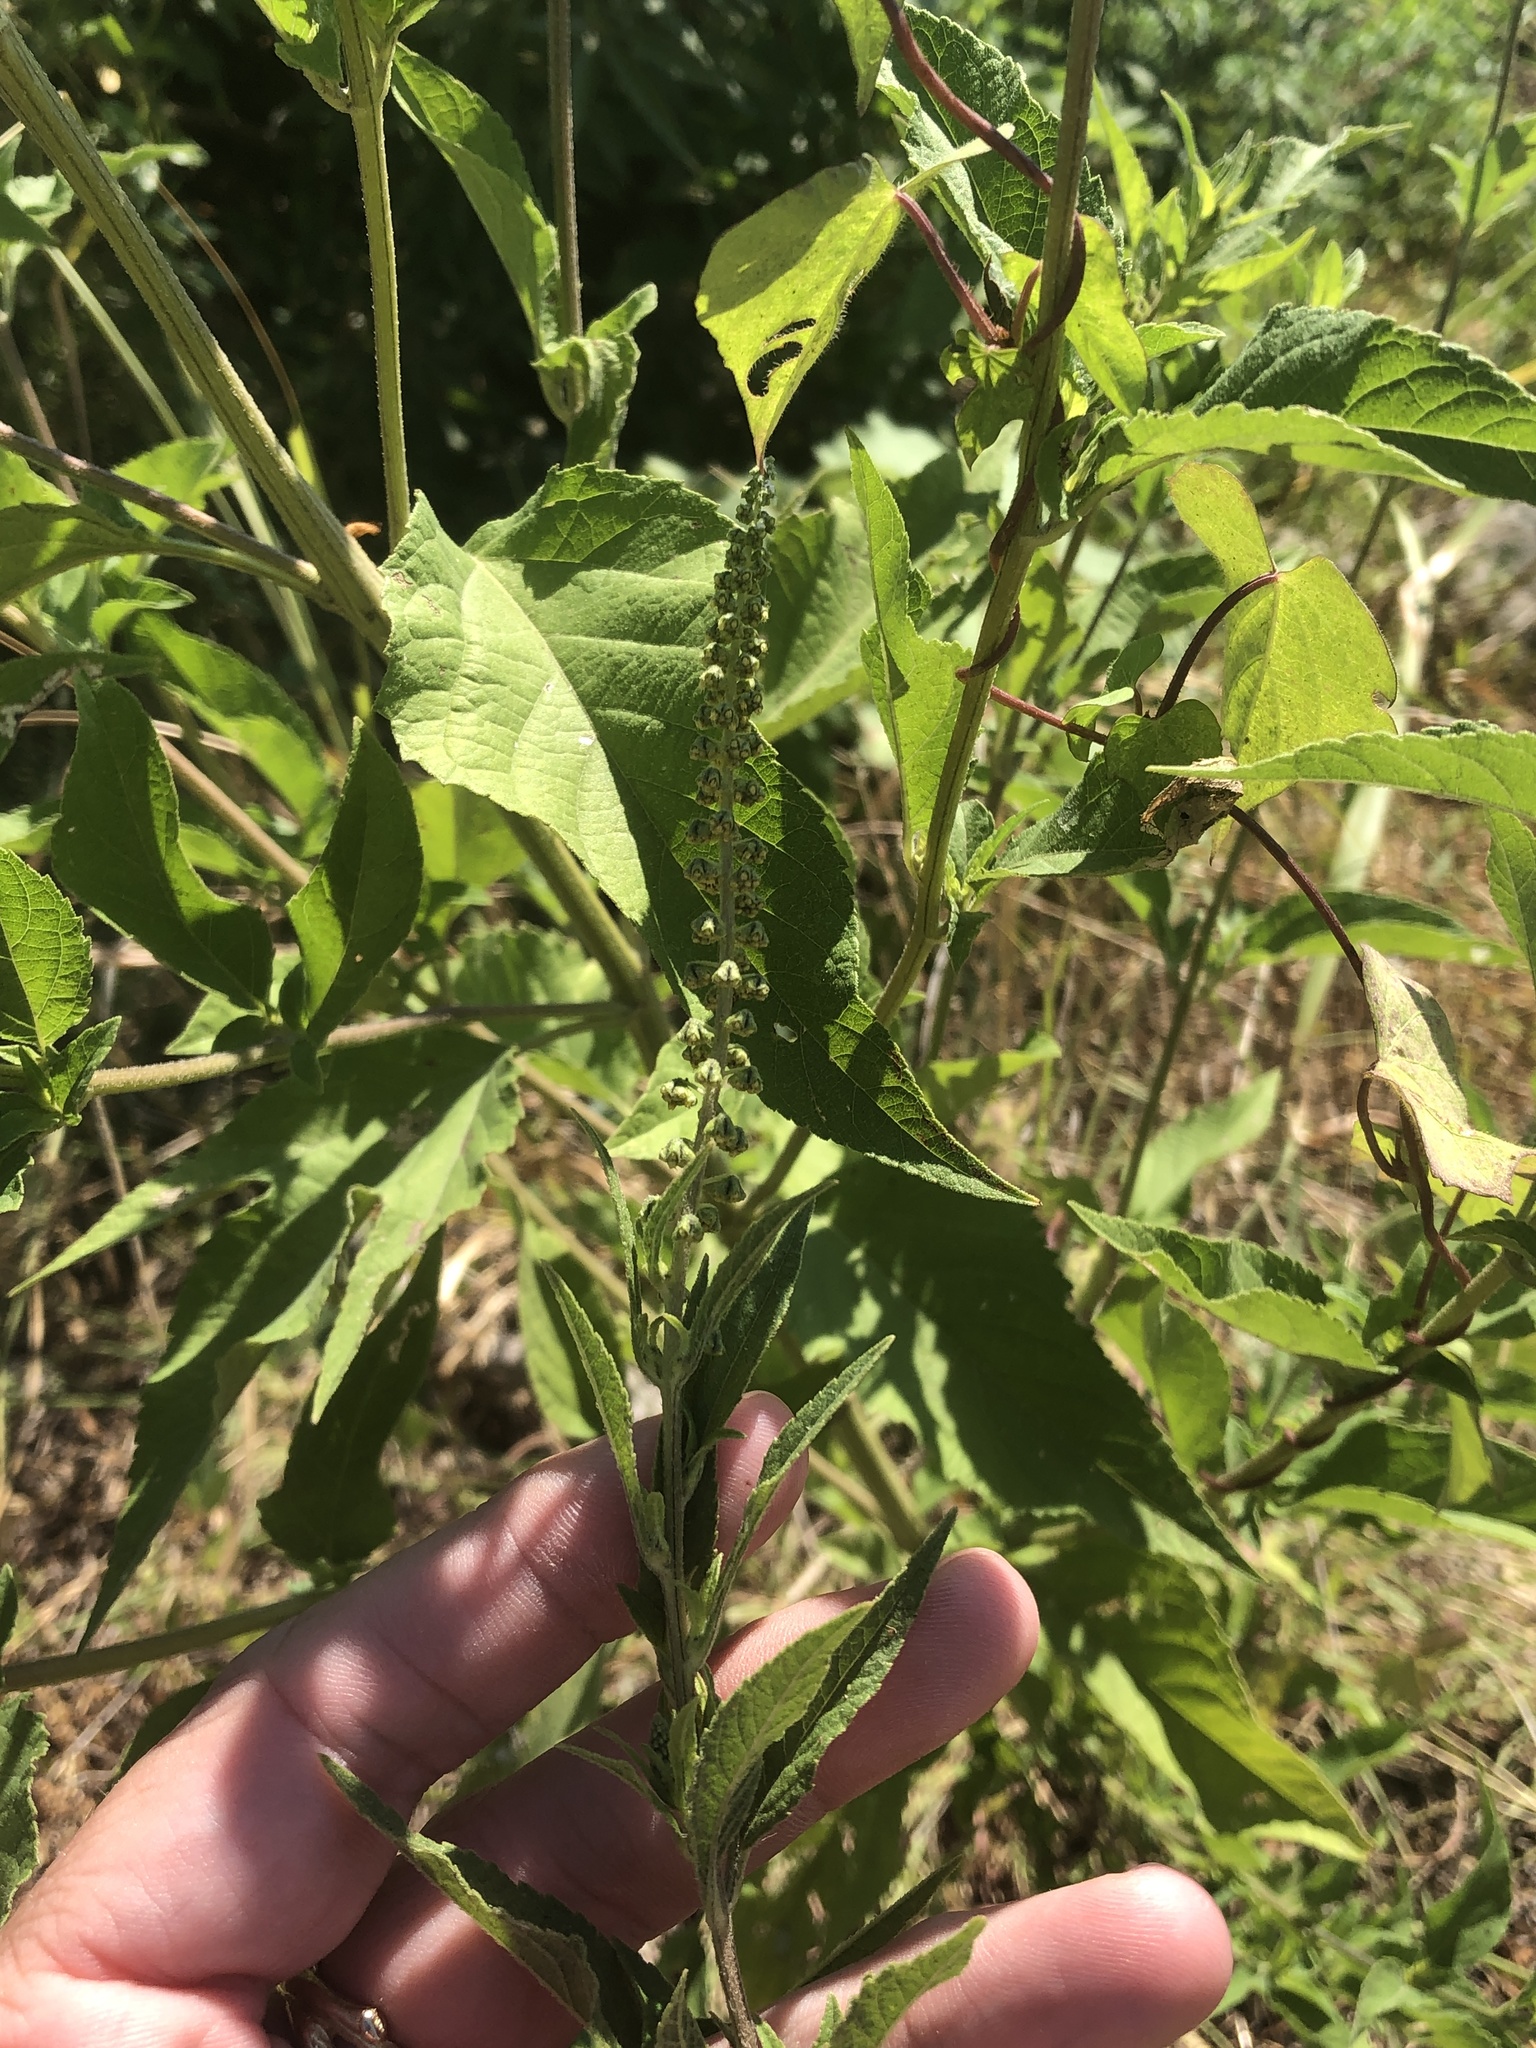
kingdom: Plantae
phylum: Tracheophyta
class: Magnoliopsida
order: Asterales
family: Asteraceae
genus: Ambrosia
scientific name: Ambrosia trifida
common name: Giant ragweed
